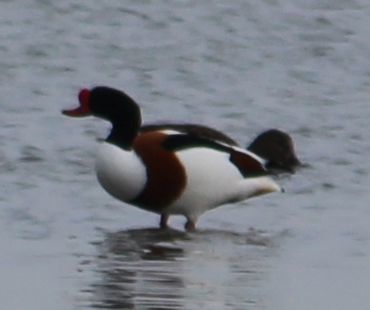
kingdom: Animalia
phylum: Chordata
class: Aves
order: Anseriformes
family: Anatidae
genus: Tadorna
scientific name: Tadorna tadorna
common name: Common shelduck
